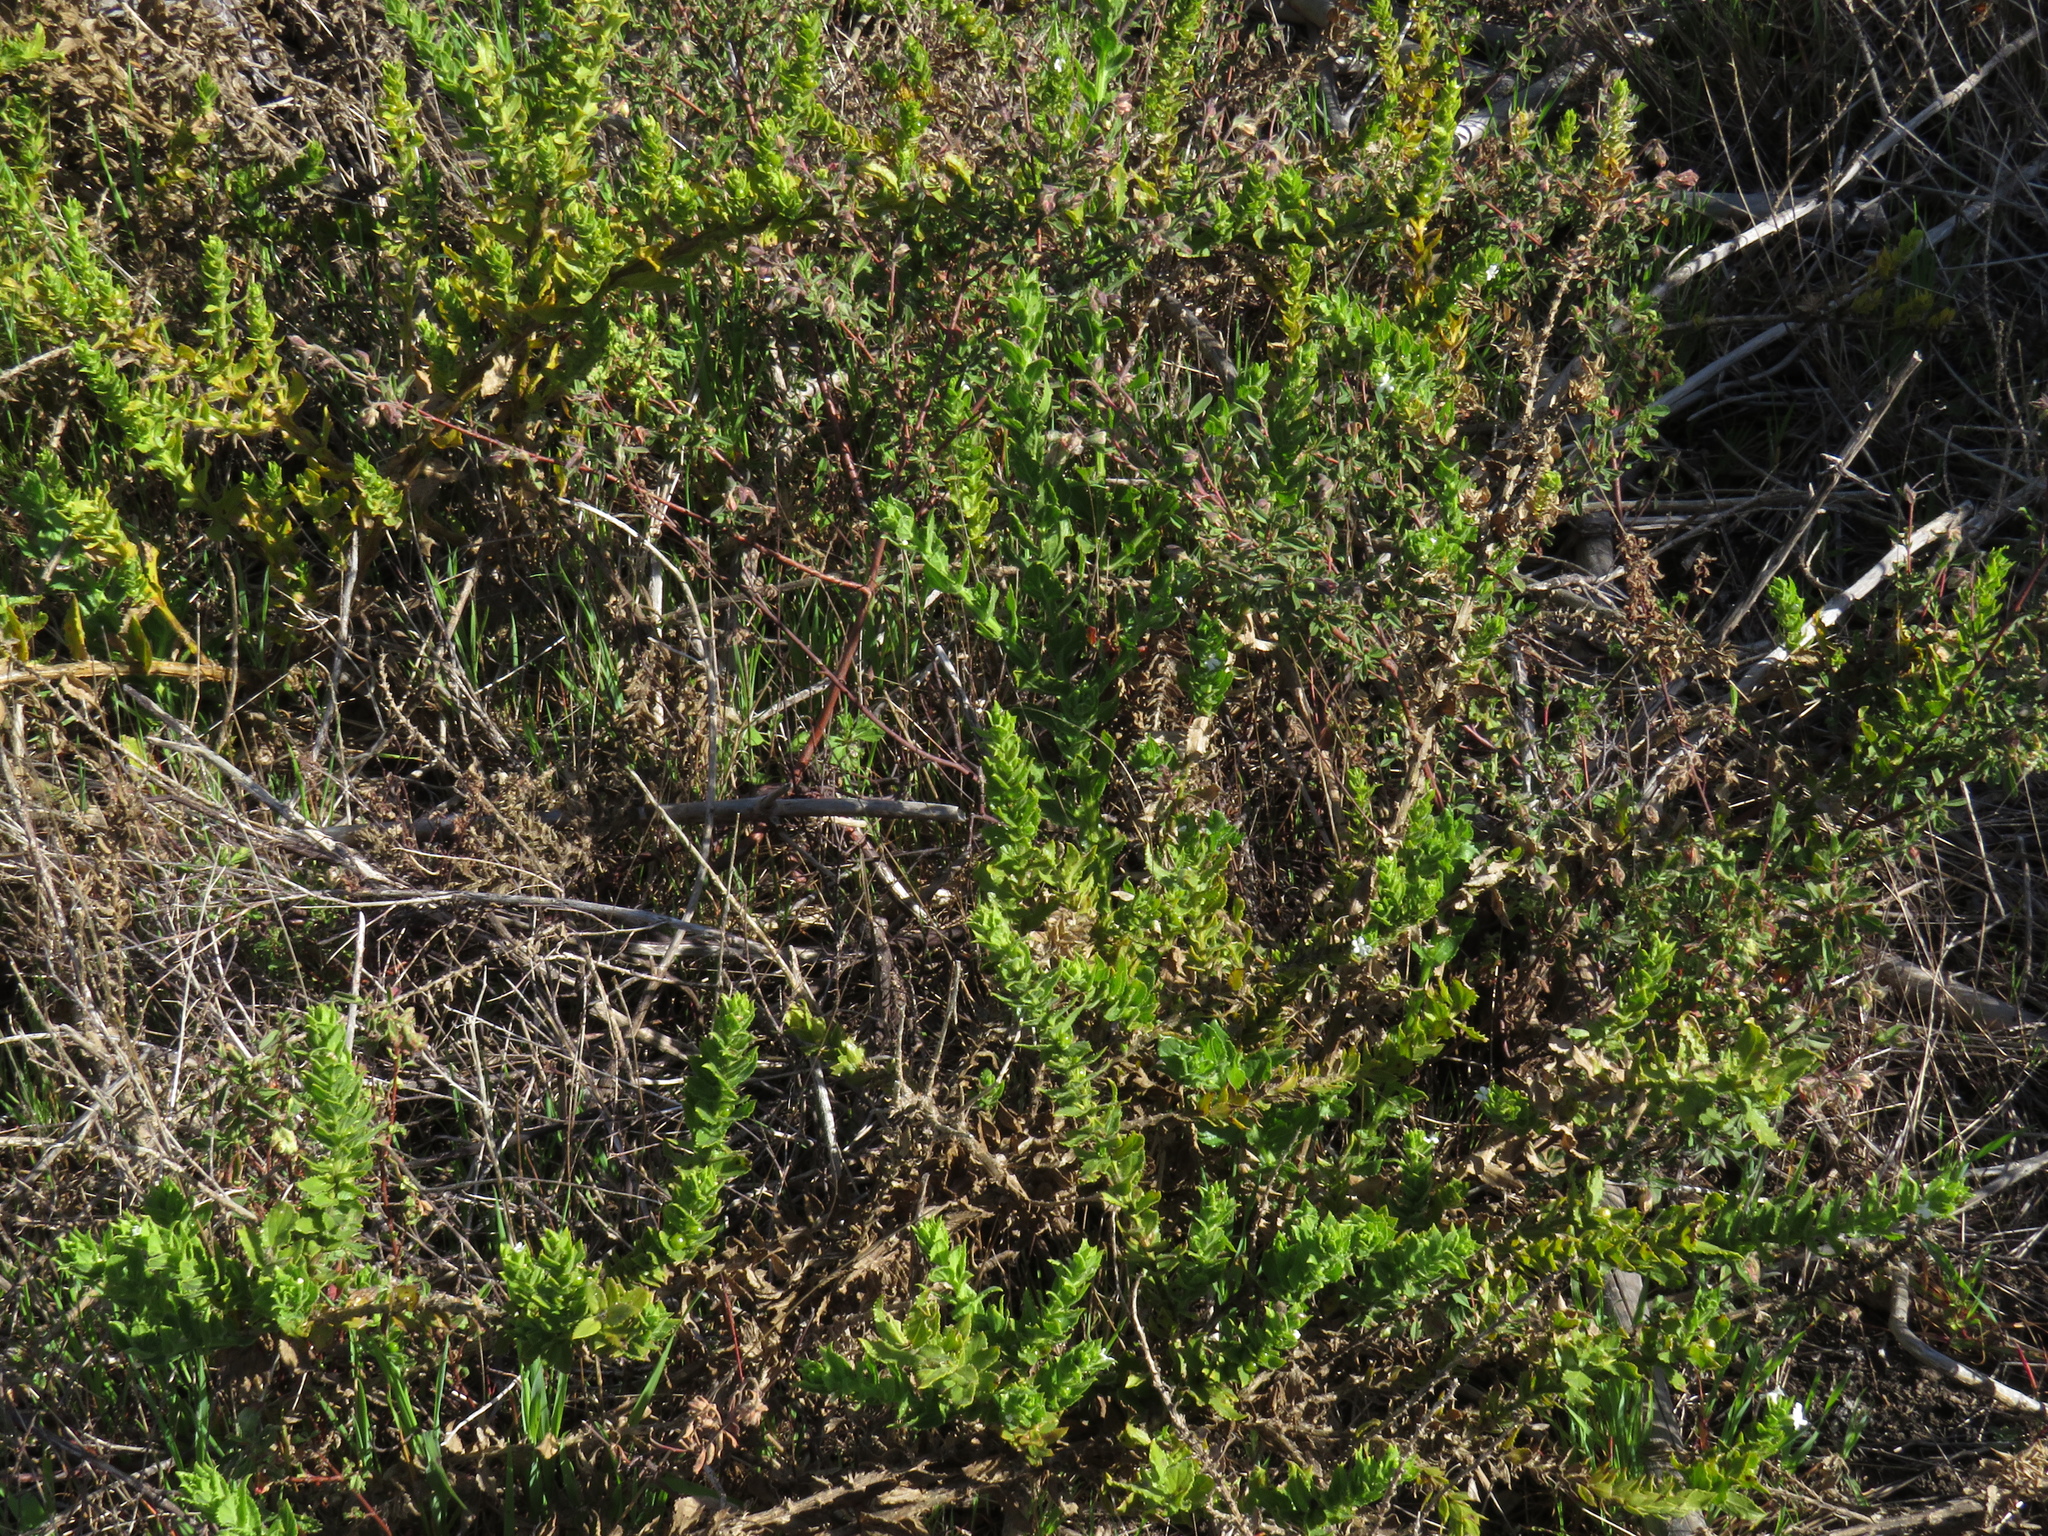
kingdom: Plantae
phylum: Tracheophyta
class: Magnoliopsida
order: Lamiales
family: Scrophulariaceae
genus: Oftia
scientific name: Oftia africana
